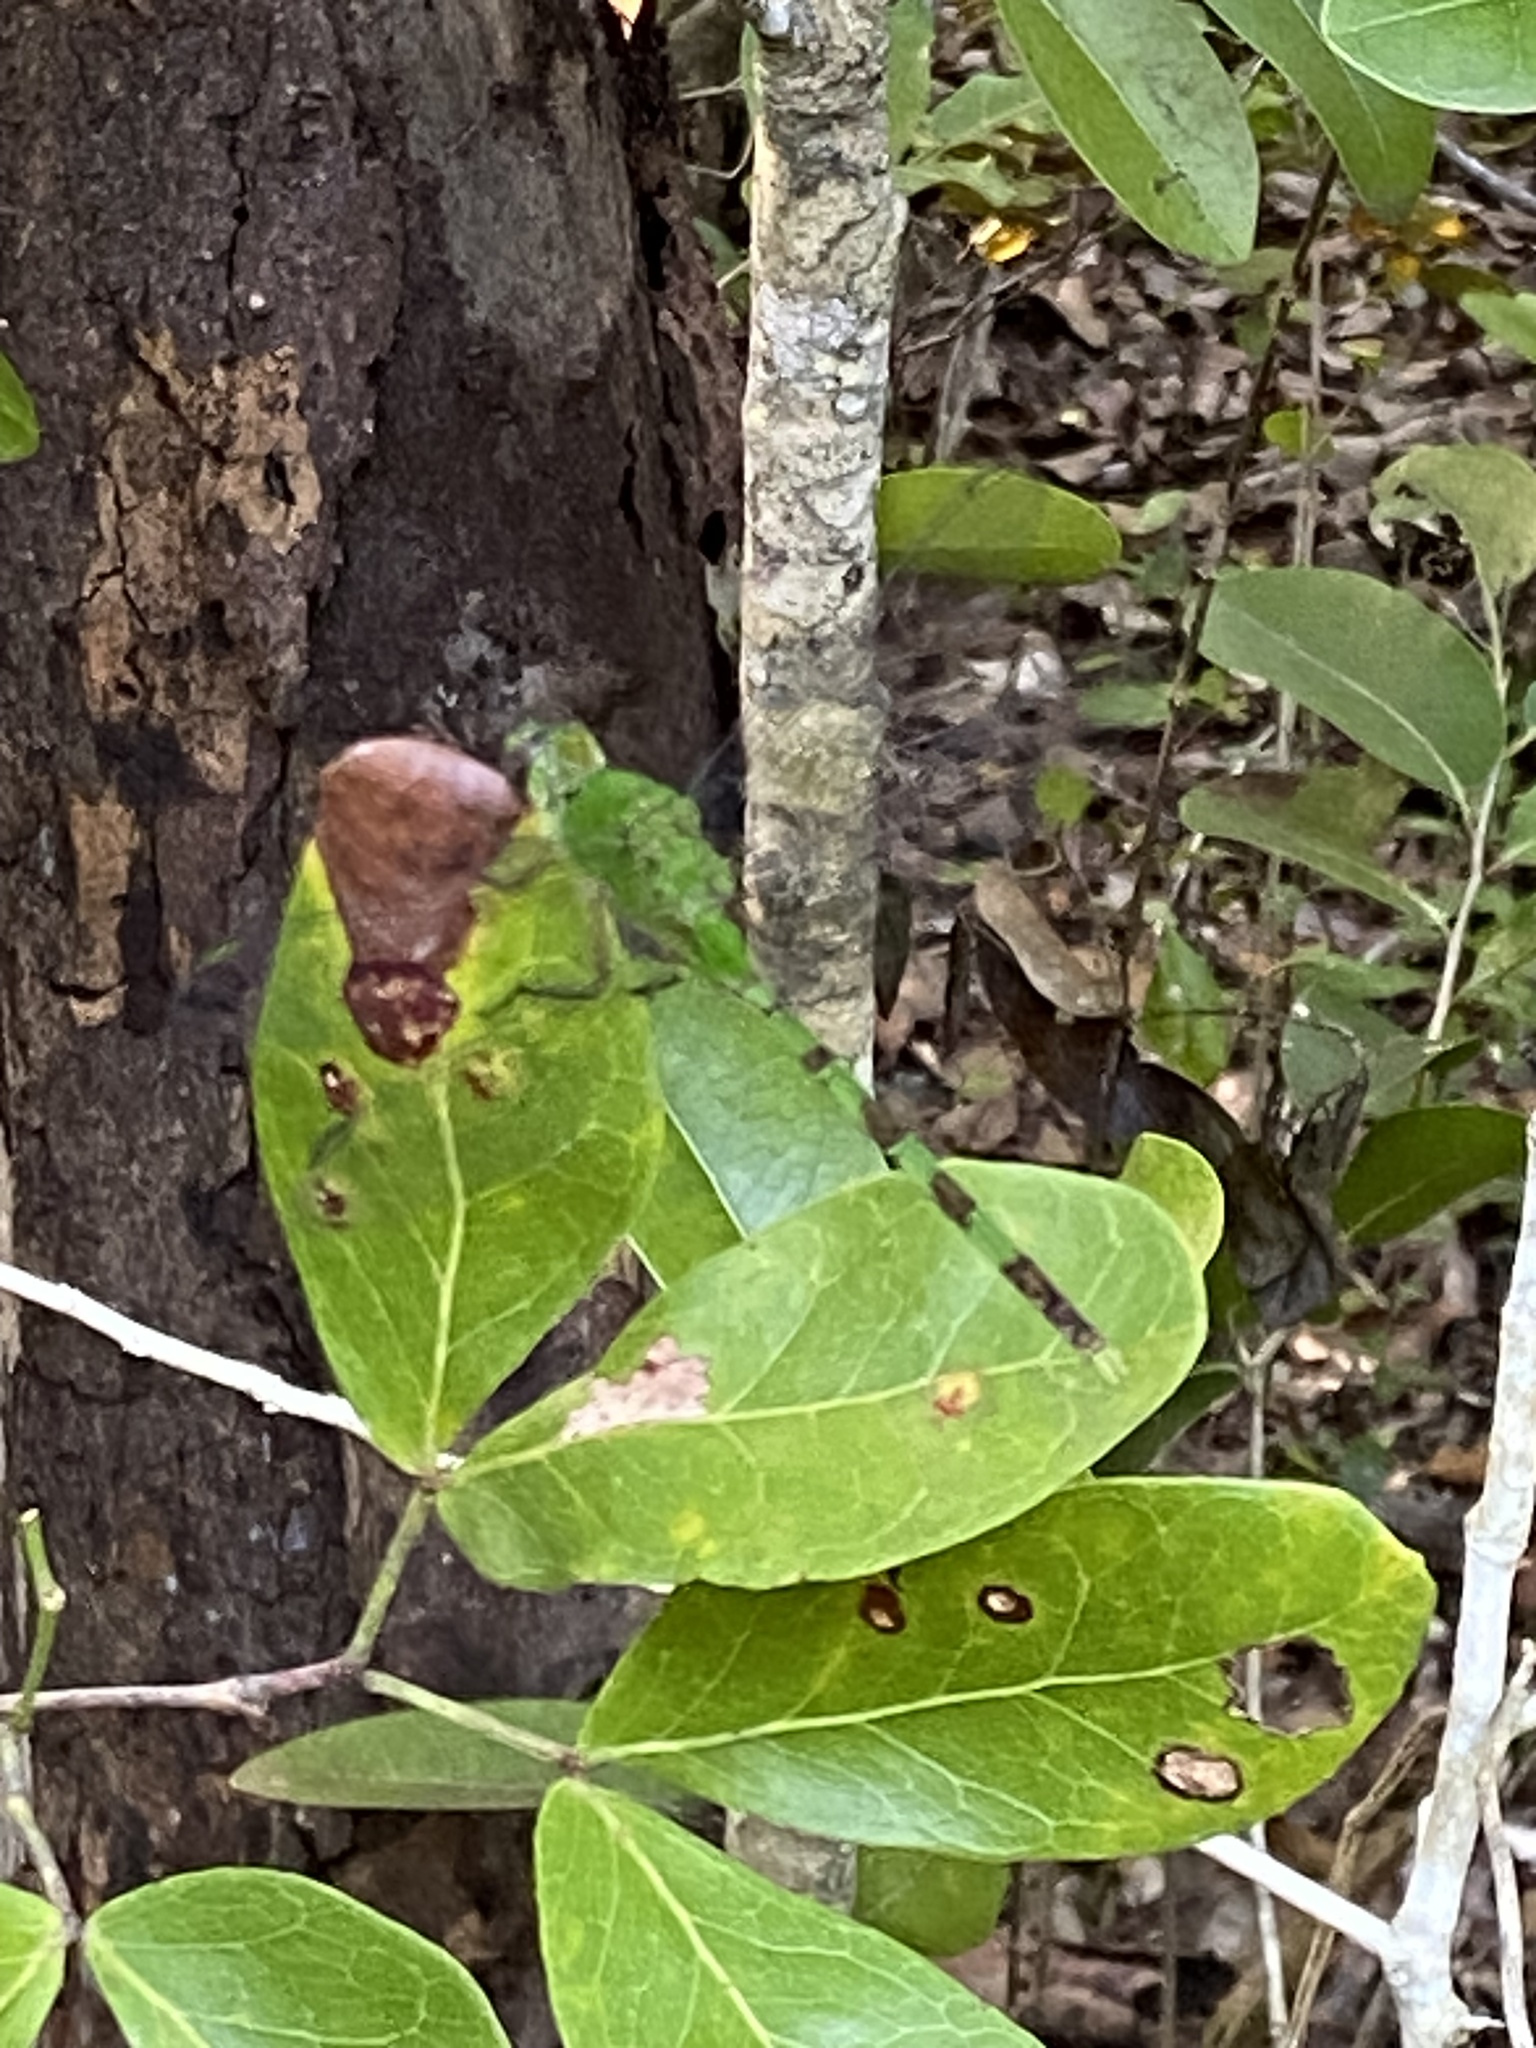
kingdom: Animalia
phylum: Arthropoda
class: Insecta
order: Odonata
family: Libellulidae
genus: Erythemis
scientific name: Erythemis vesiculosa
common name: Great pondhawk
